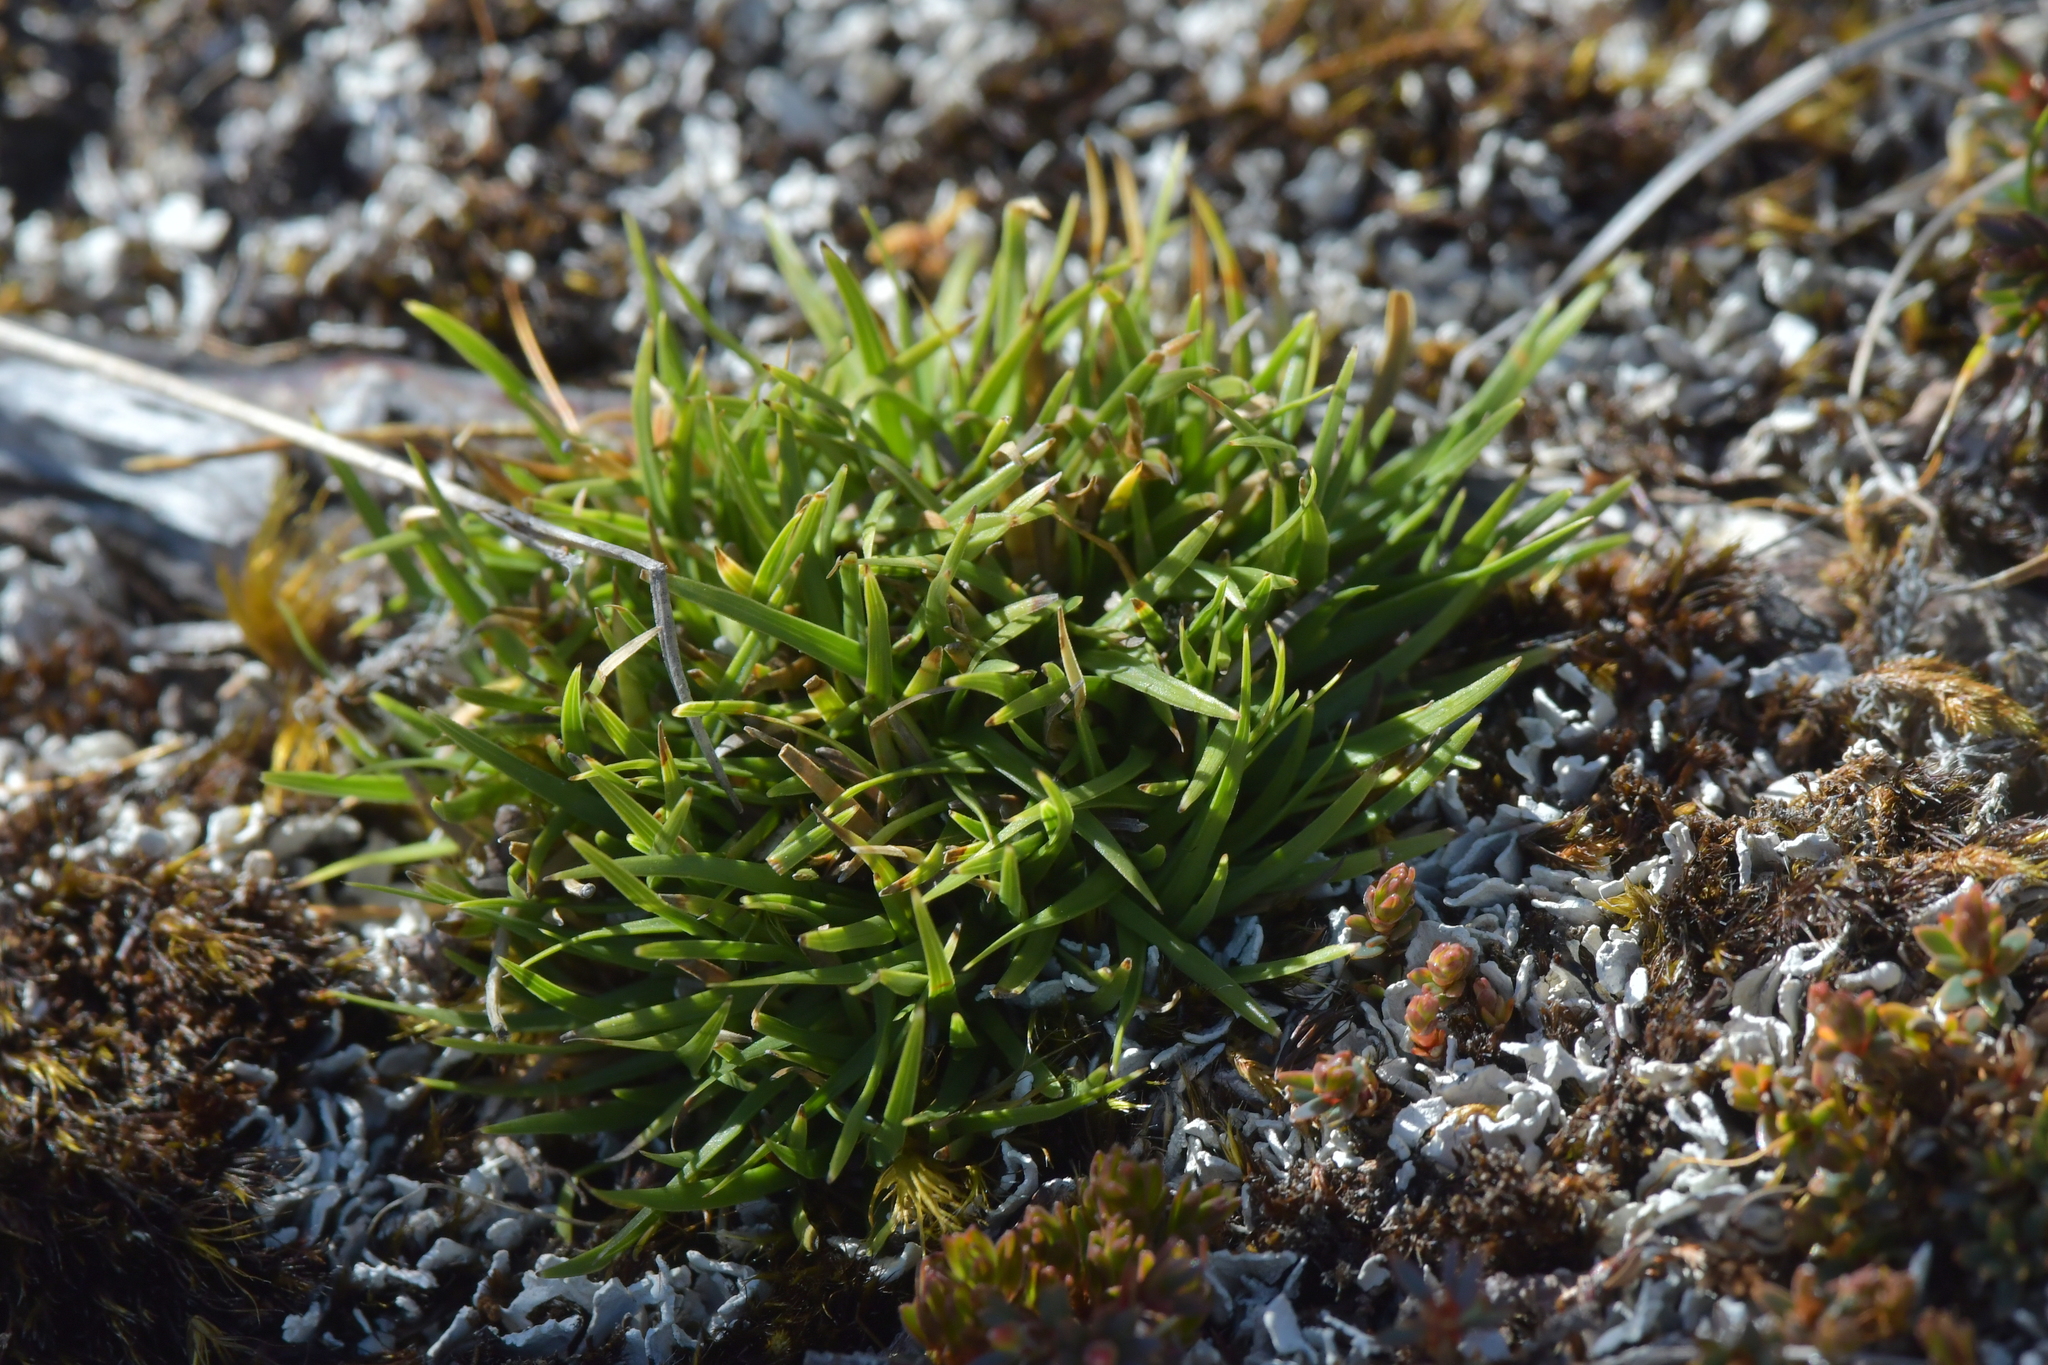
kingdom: Plantae
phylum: Tracheophyta
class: Liliopsida
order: Poales
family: Cyperaceae
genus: Oreobolus
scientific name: Oreobolus impar
